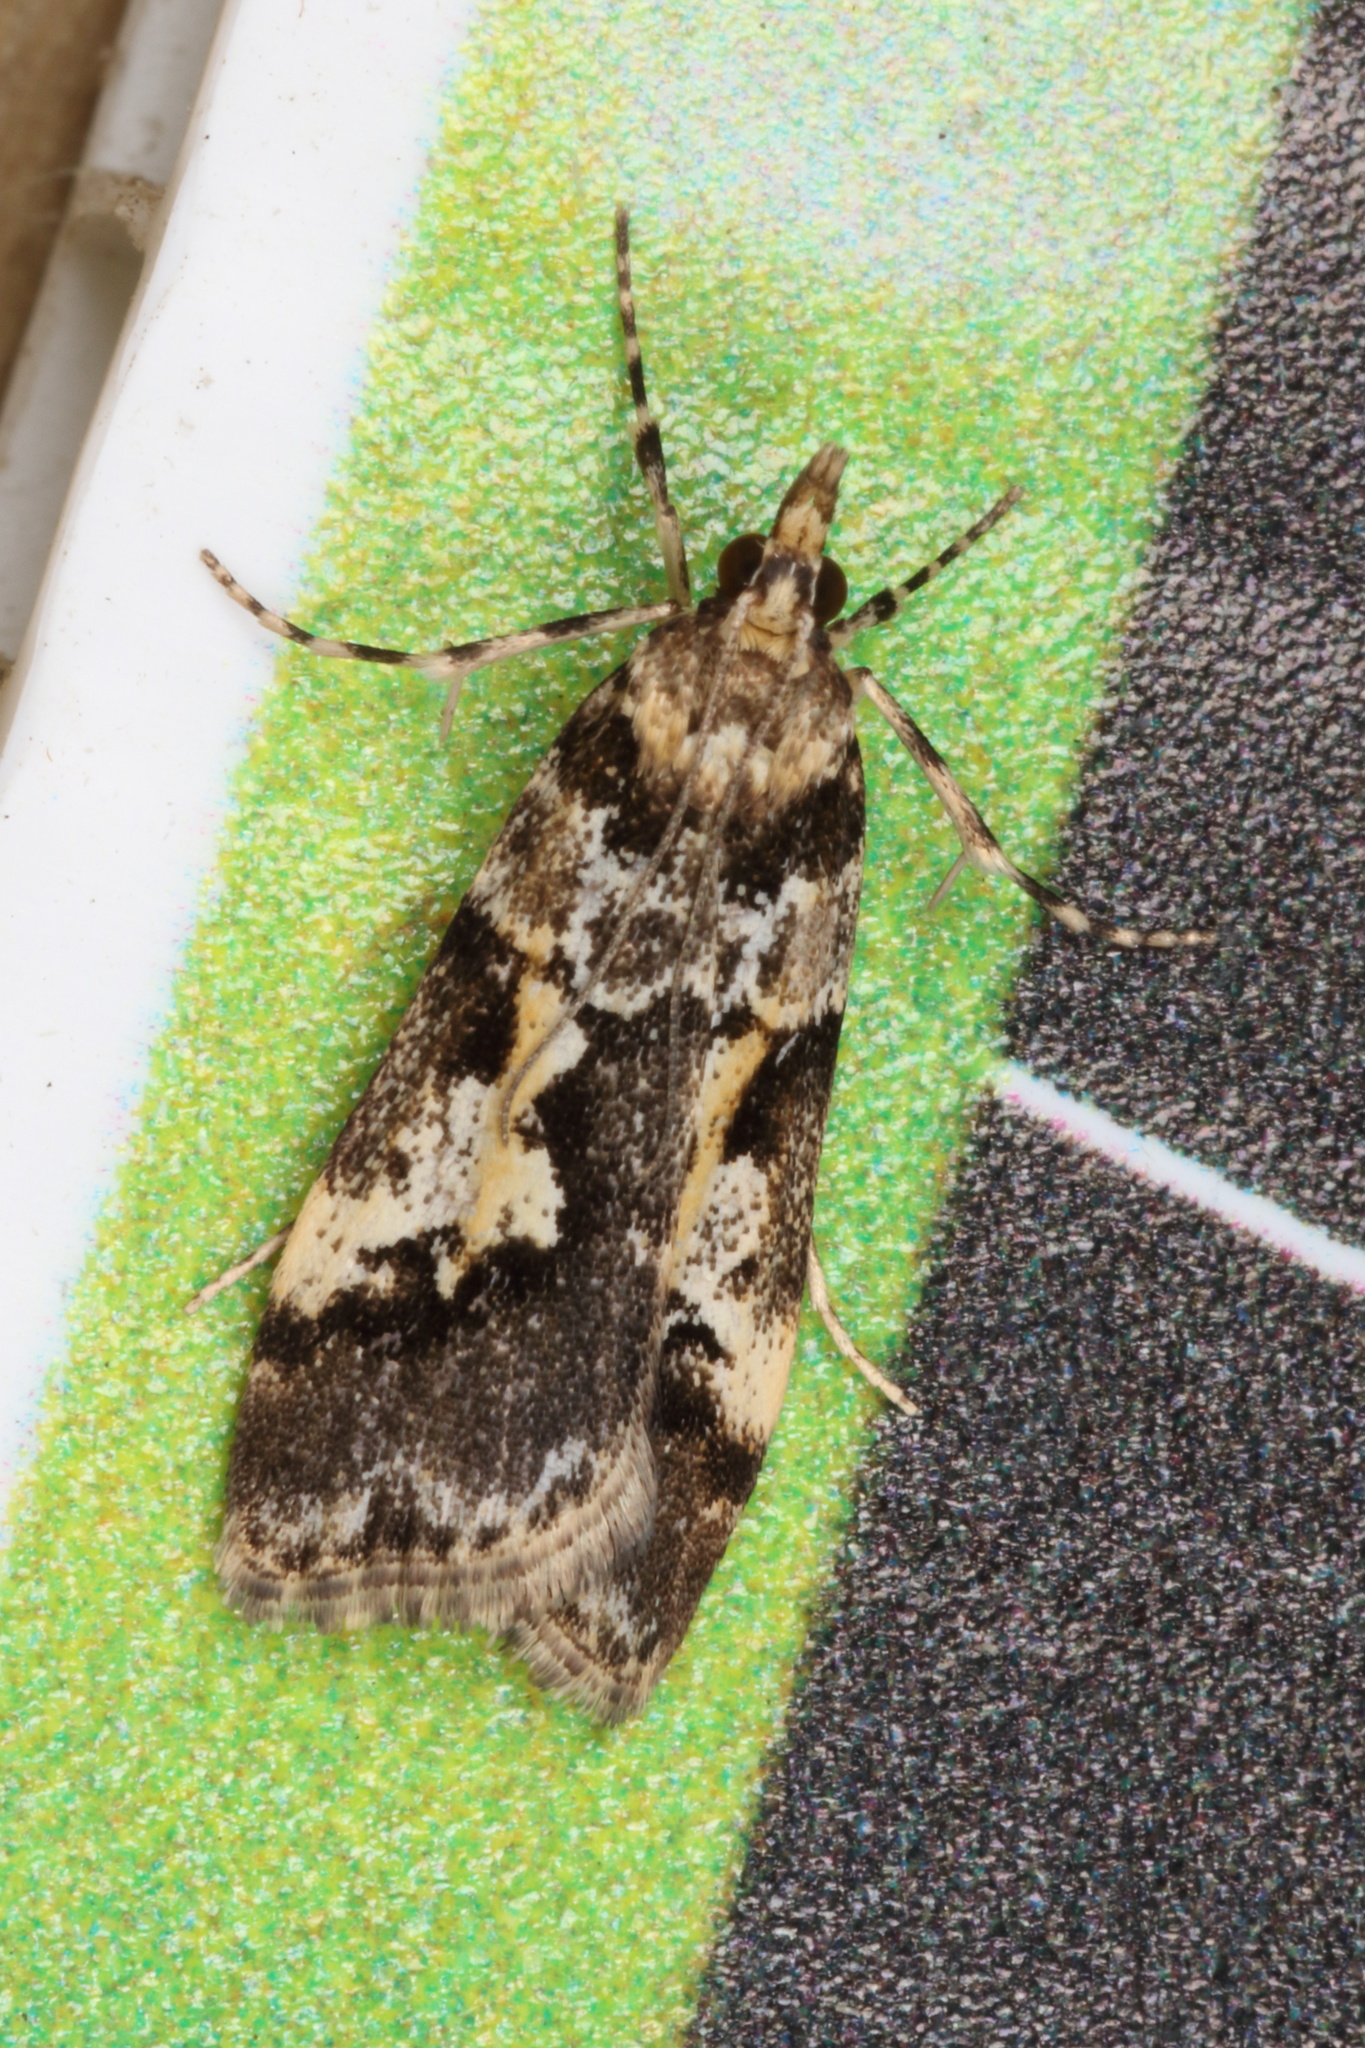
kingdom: Animalia
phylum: Arthropoda
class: Insecta
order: Lepidoptera
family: Crambidae
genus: Eudonia
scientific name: Eudonia characta
